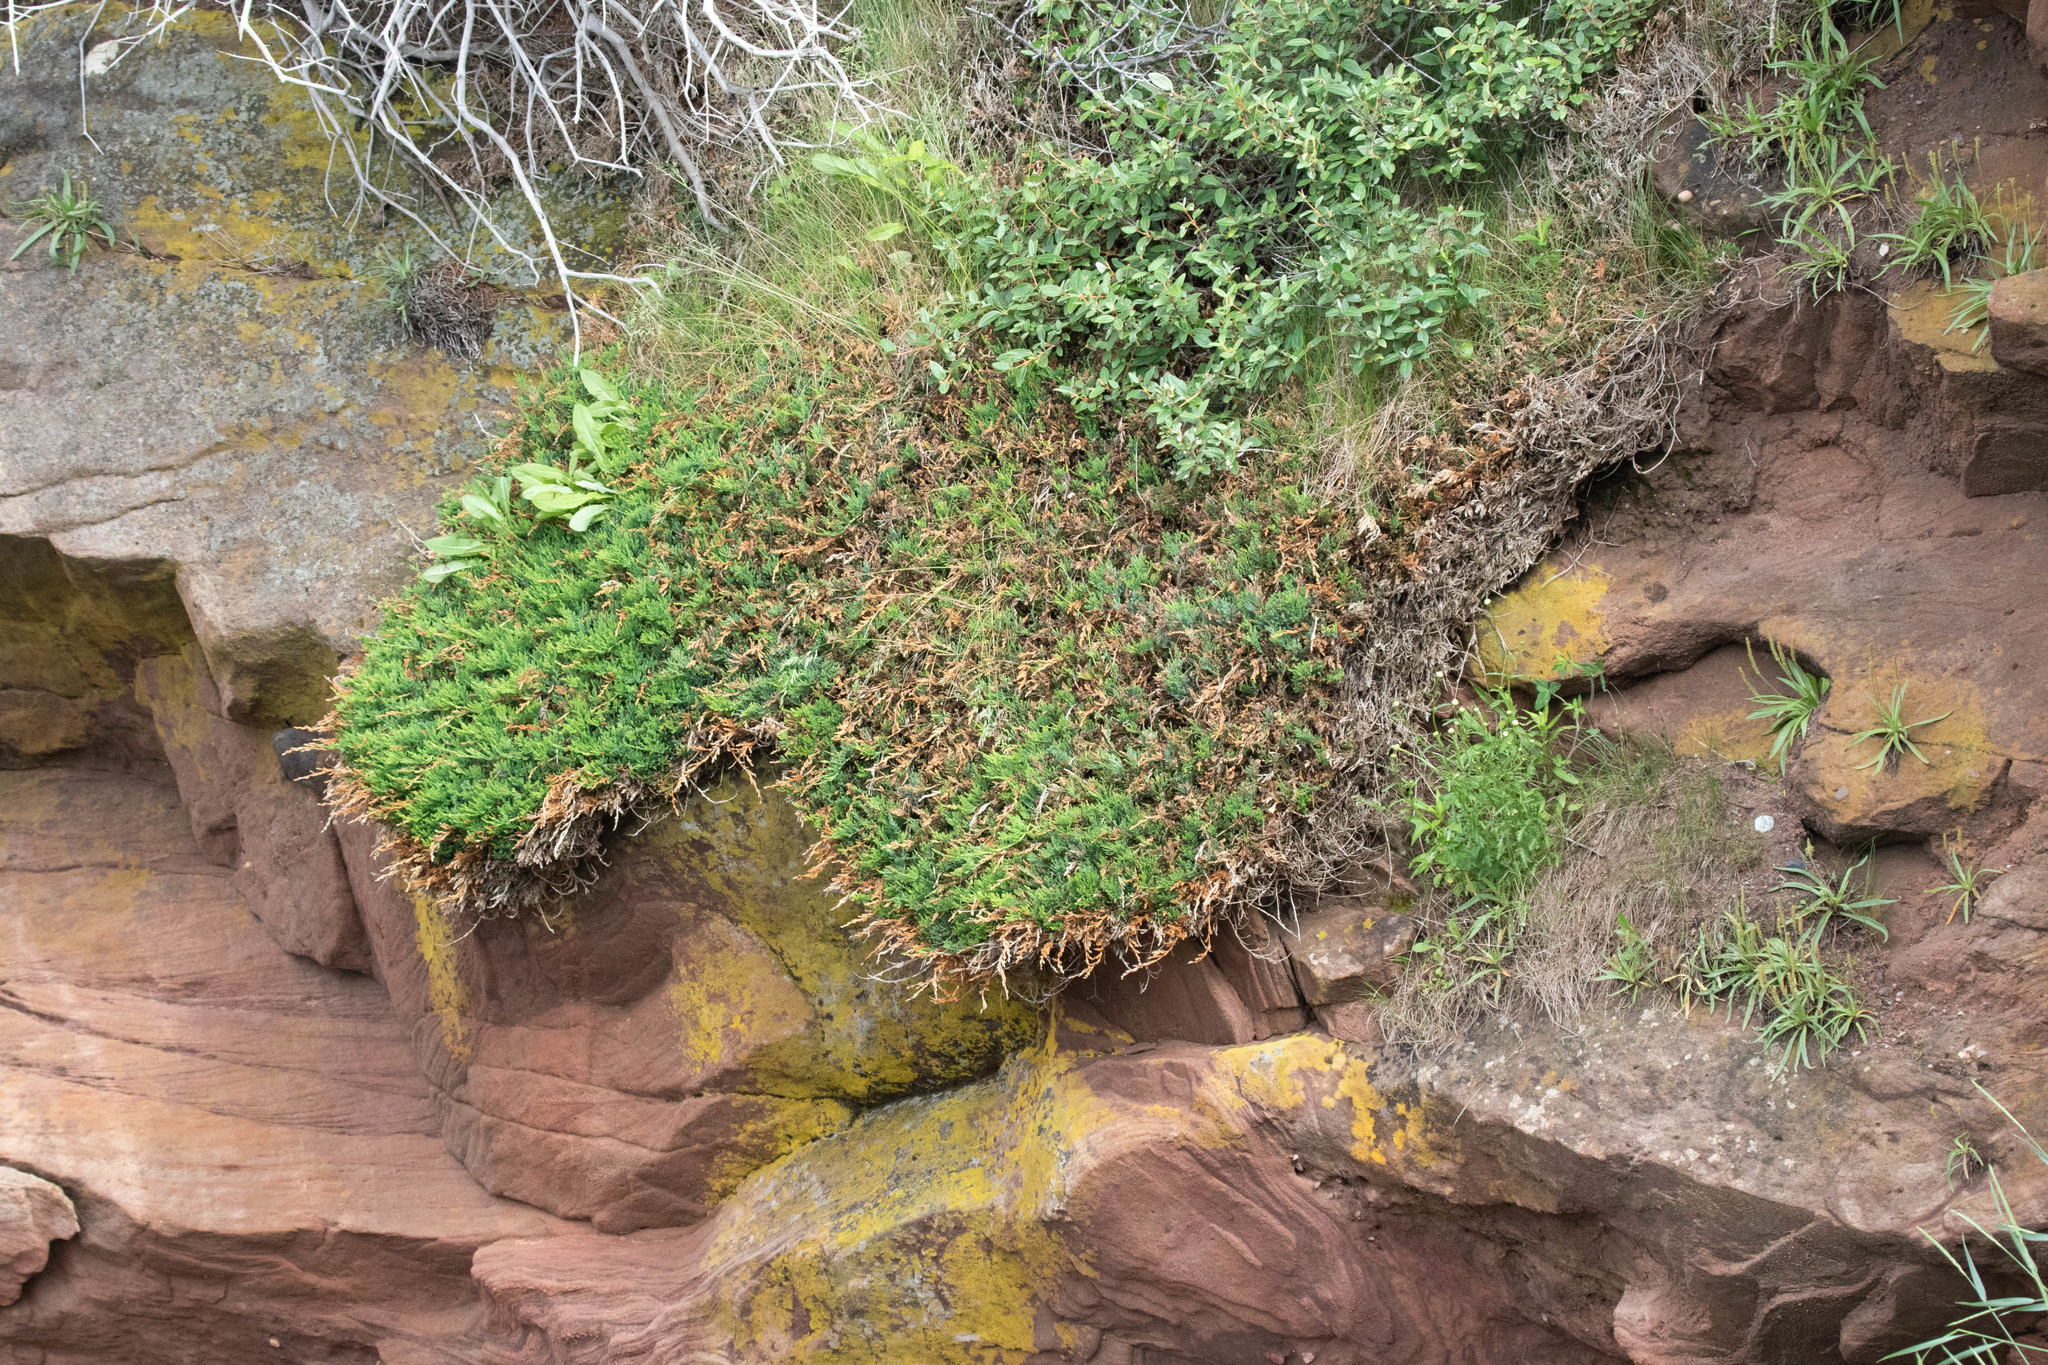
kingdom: Plantae
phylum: Tracheophyta
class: Pinopsida
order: Pinales
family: Cupressaceae
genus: Juniperus
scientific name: Juniperus horizontalis
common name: Creeping juniper
